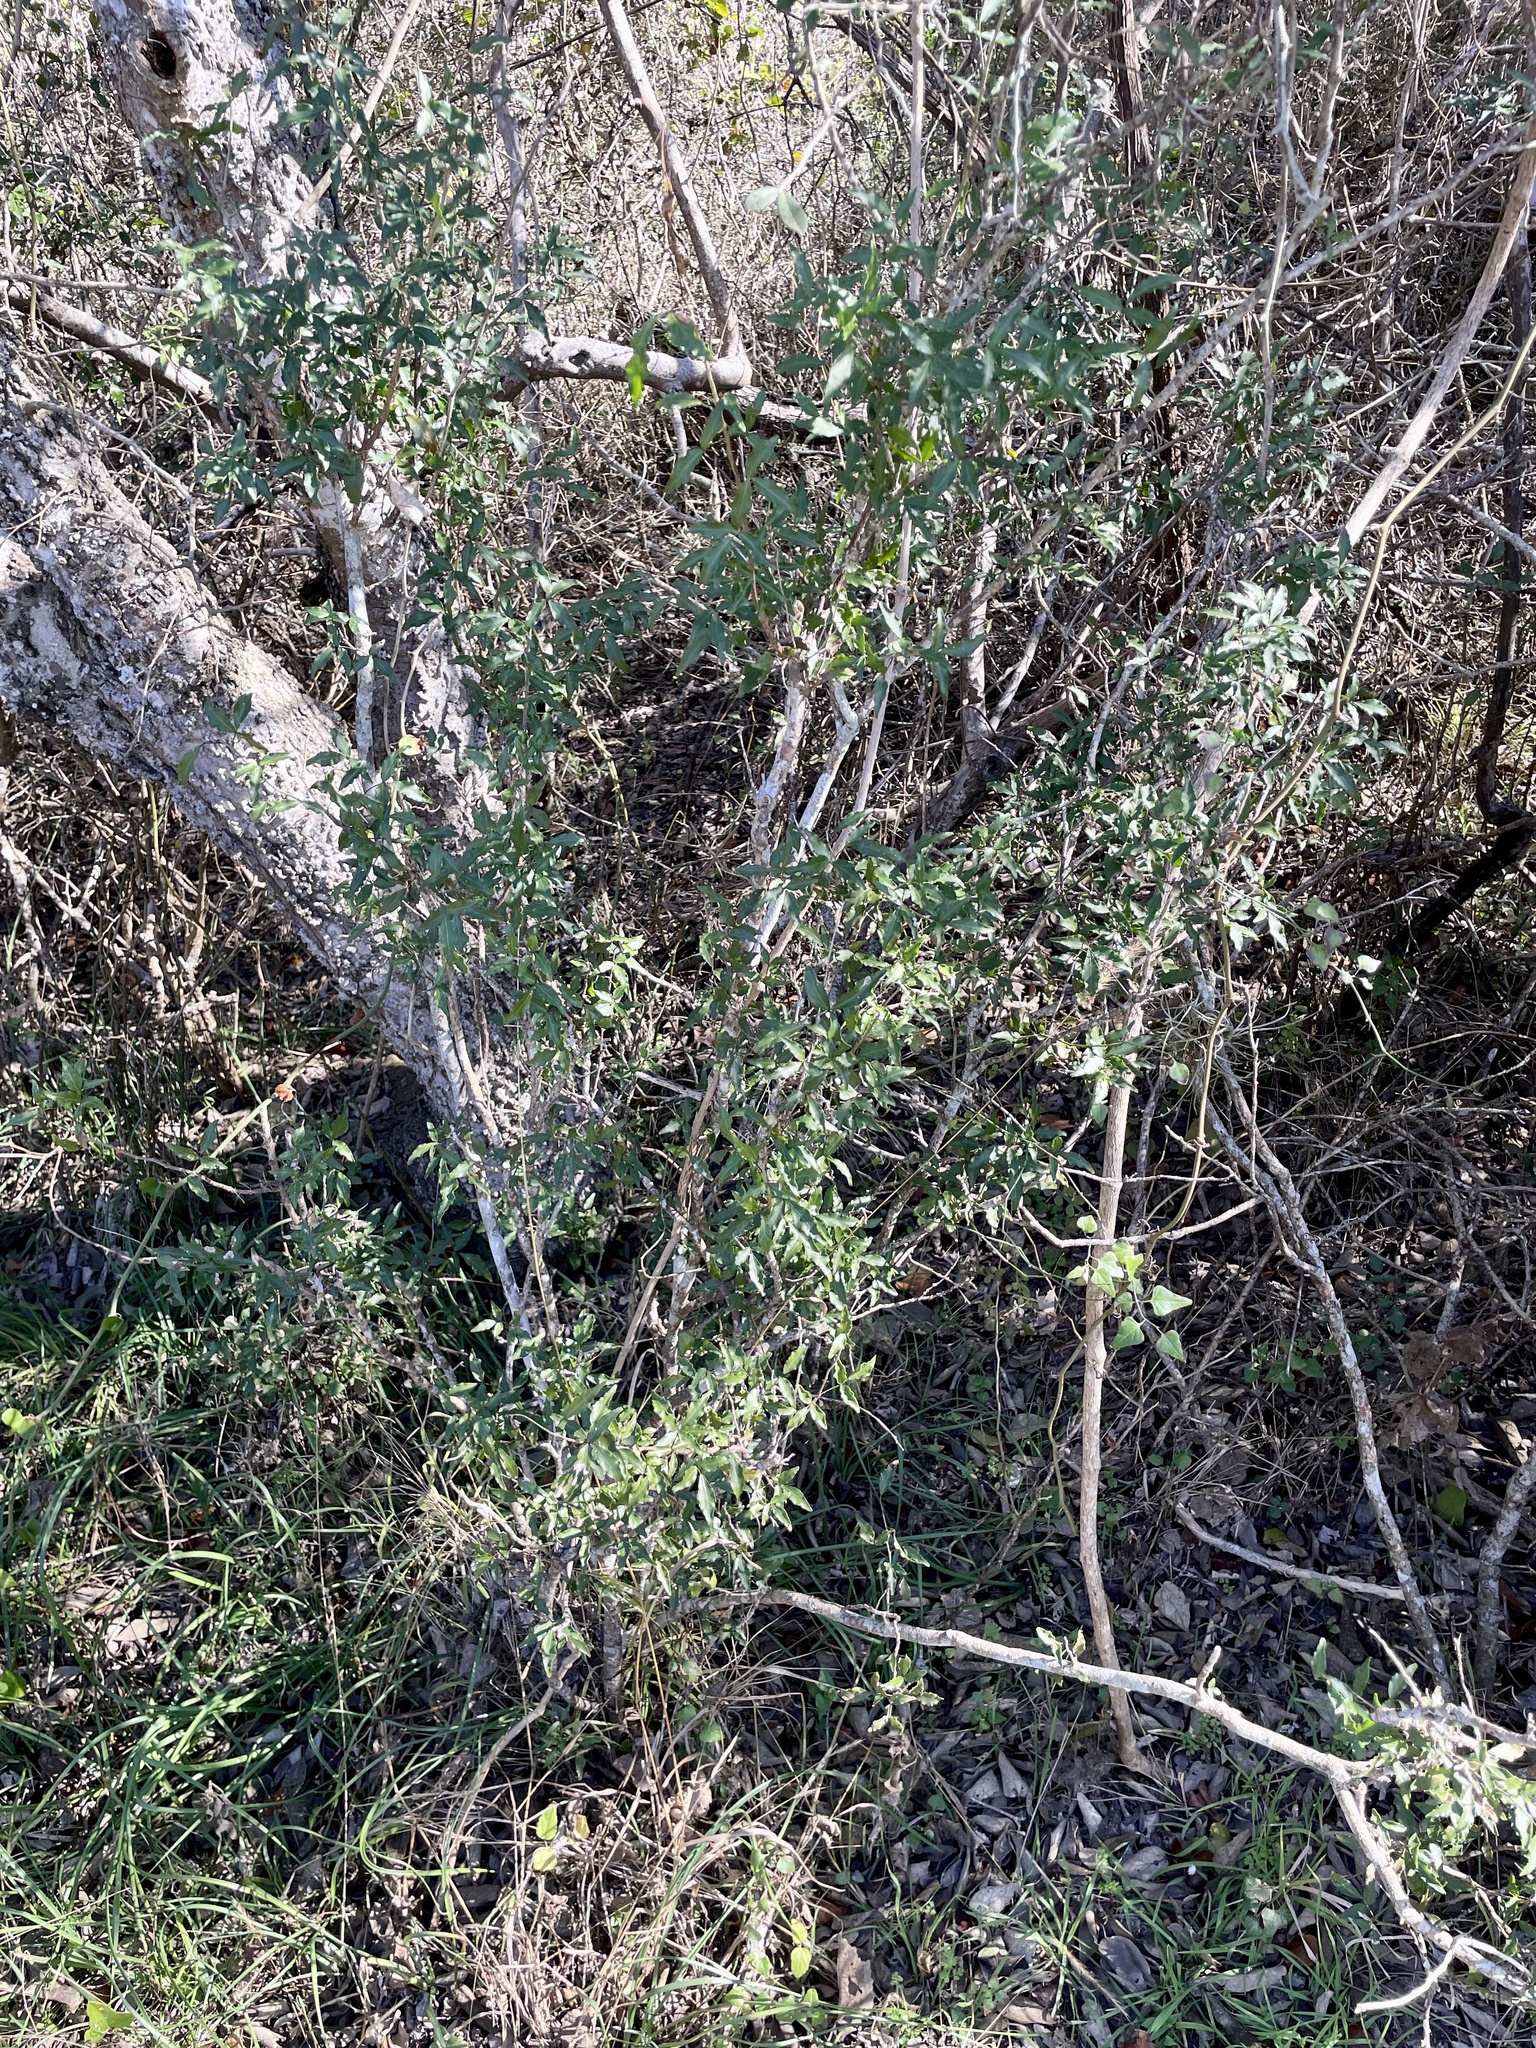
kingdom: Plantae
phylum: Tracheophyta
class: Magnoliopsida
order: Sapindales
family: Rutaceae
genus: Amyris
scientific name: Amyris texana
